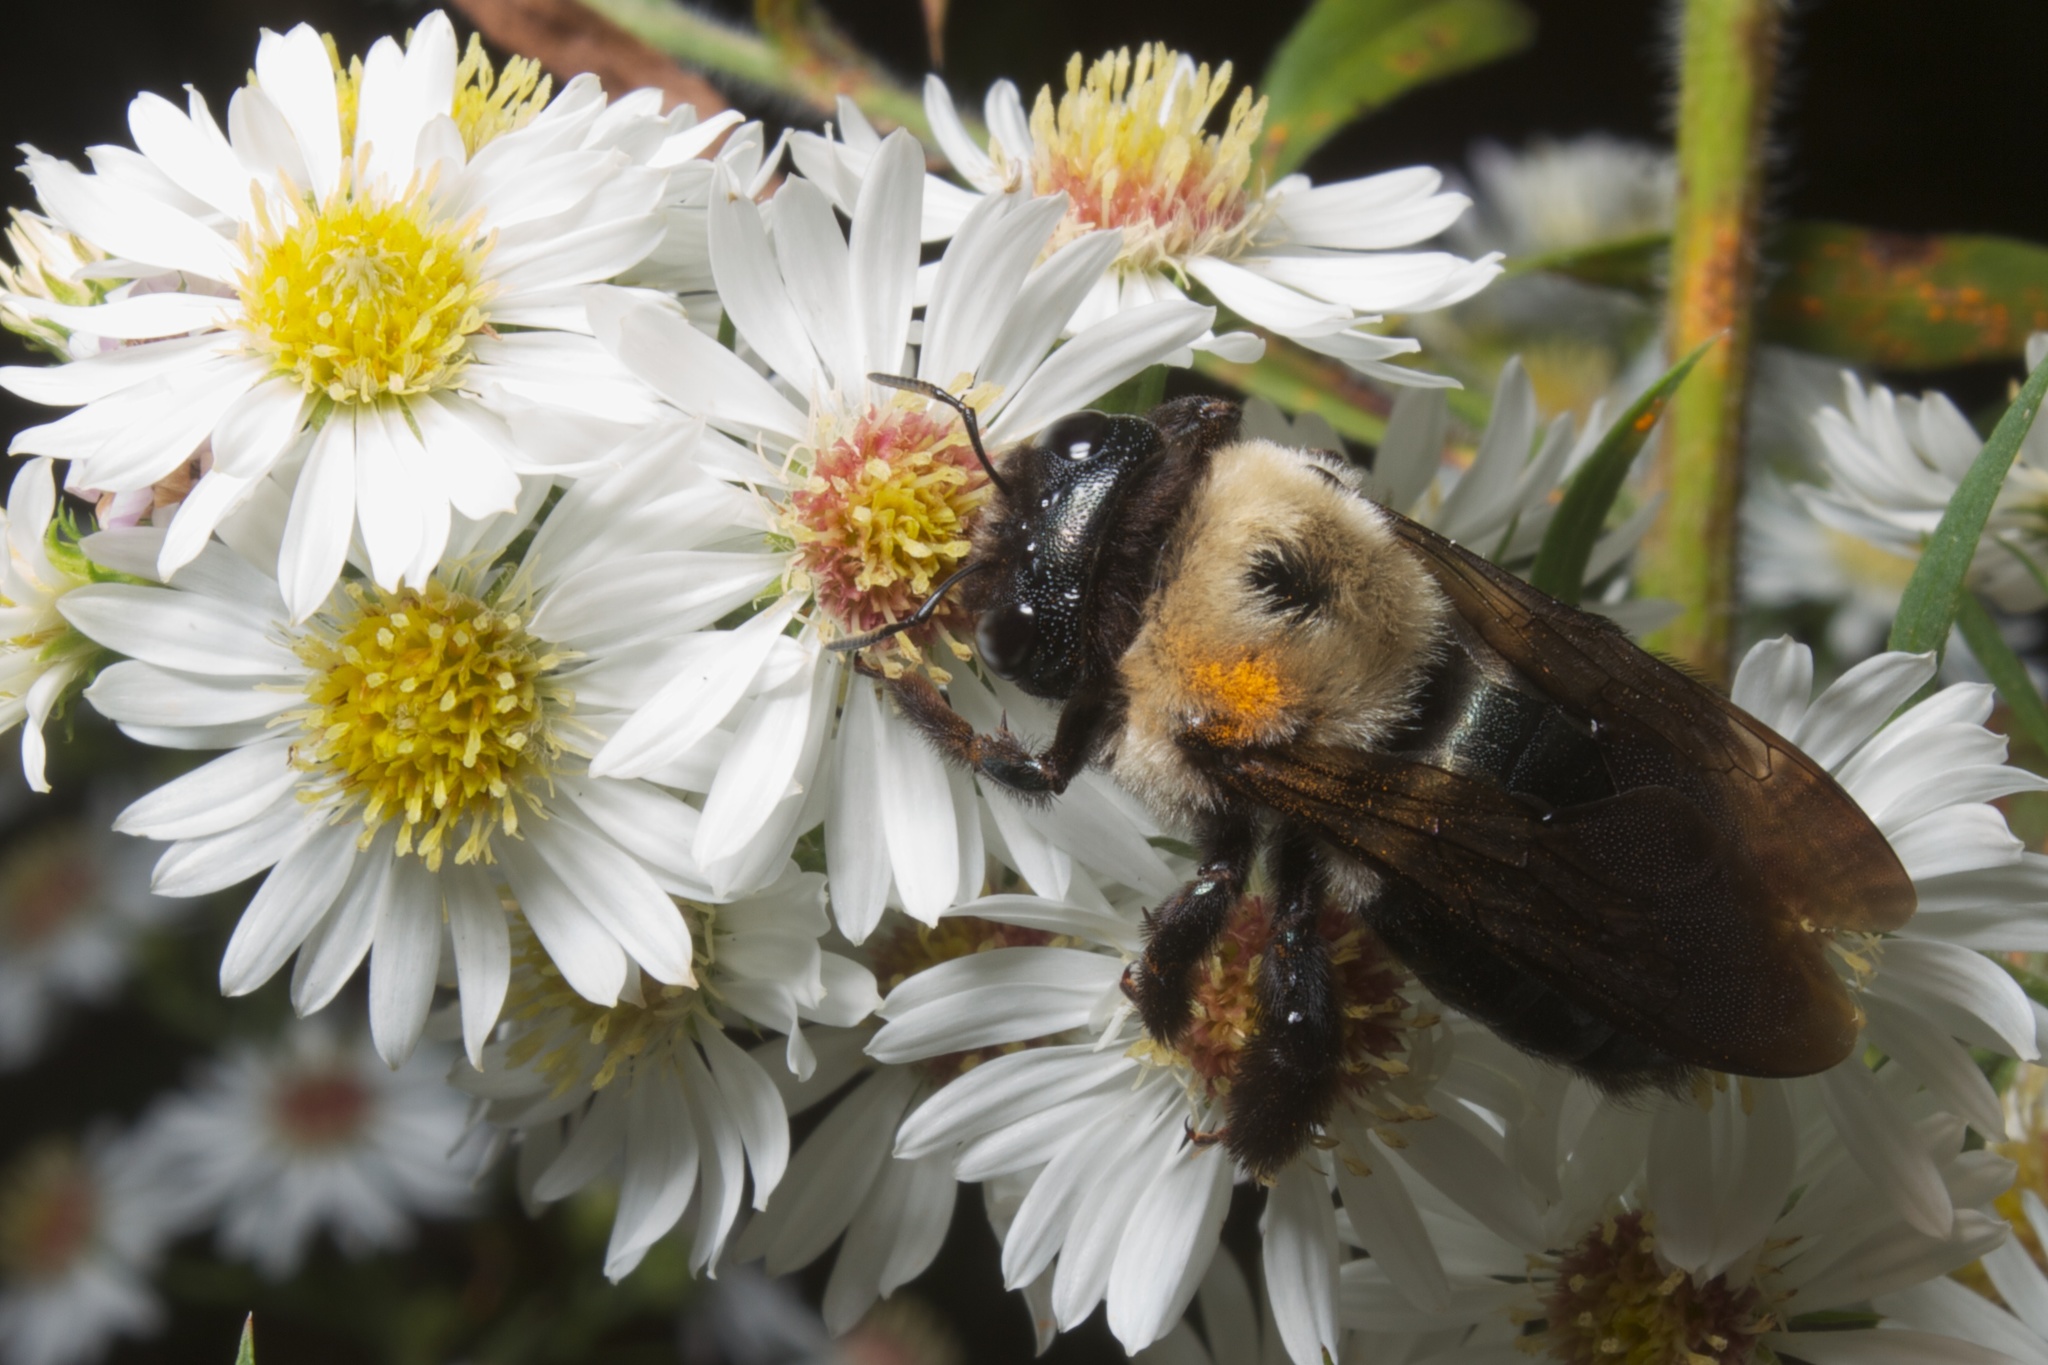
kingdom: Animalia
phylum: Arthropoda
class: Insecta
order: Hymenoptera
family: Apidae
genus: Xylocopa
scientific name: Xylocopa virginica
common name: Carpenter bee
